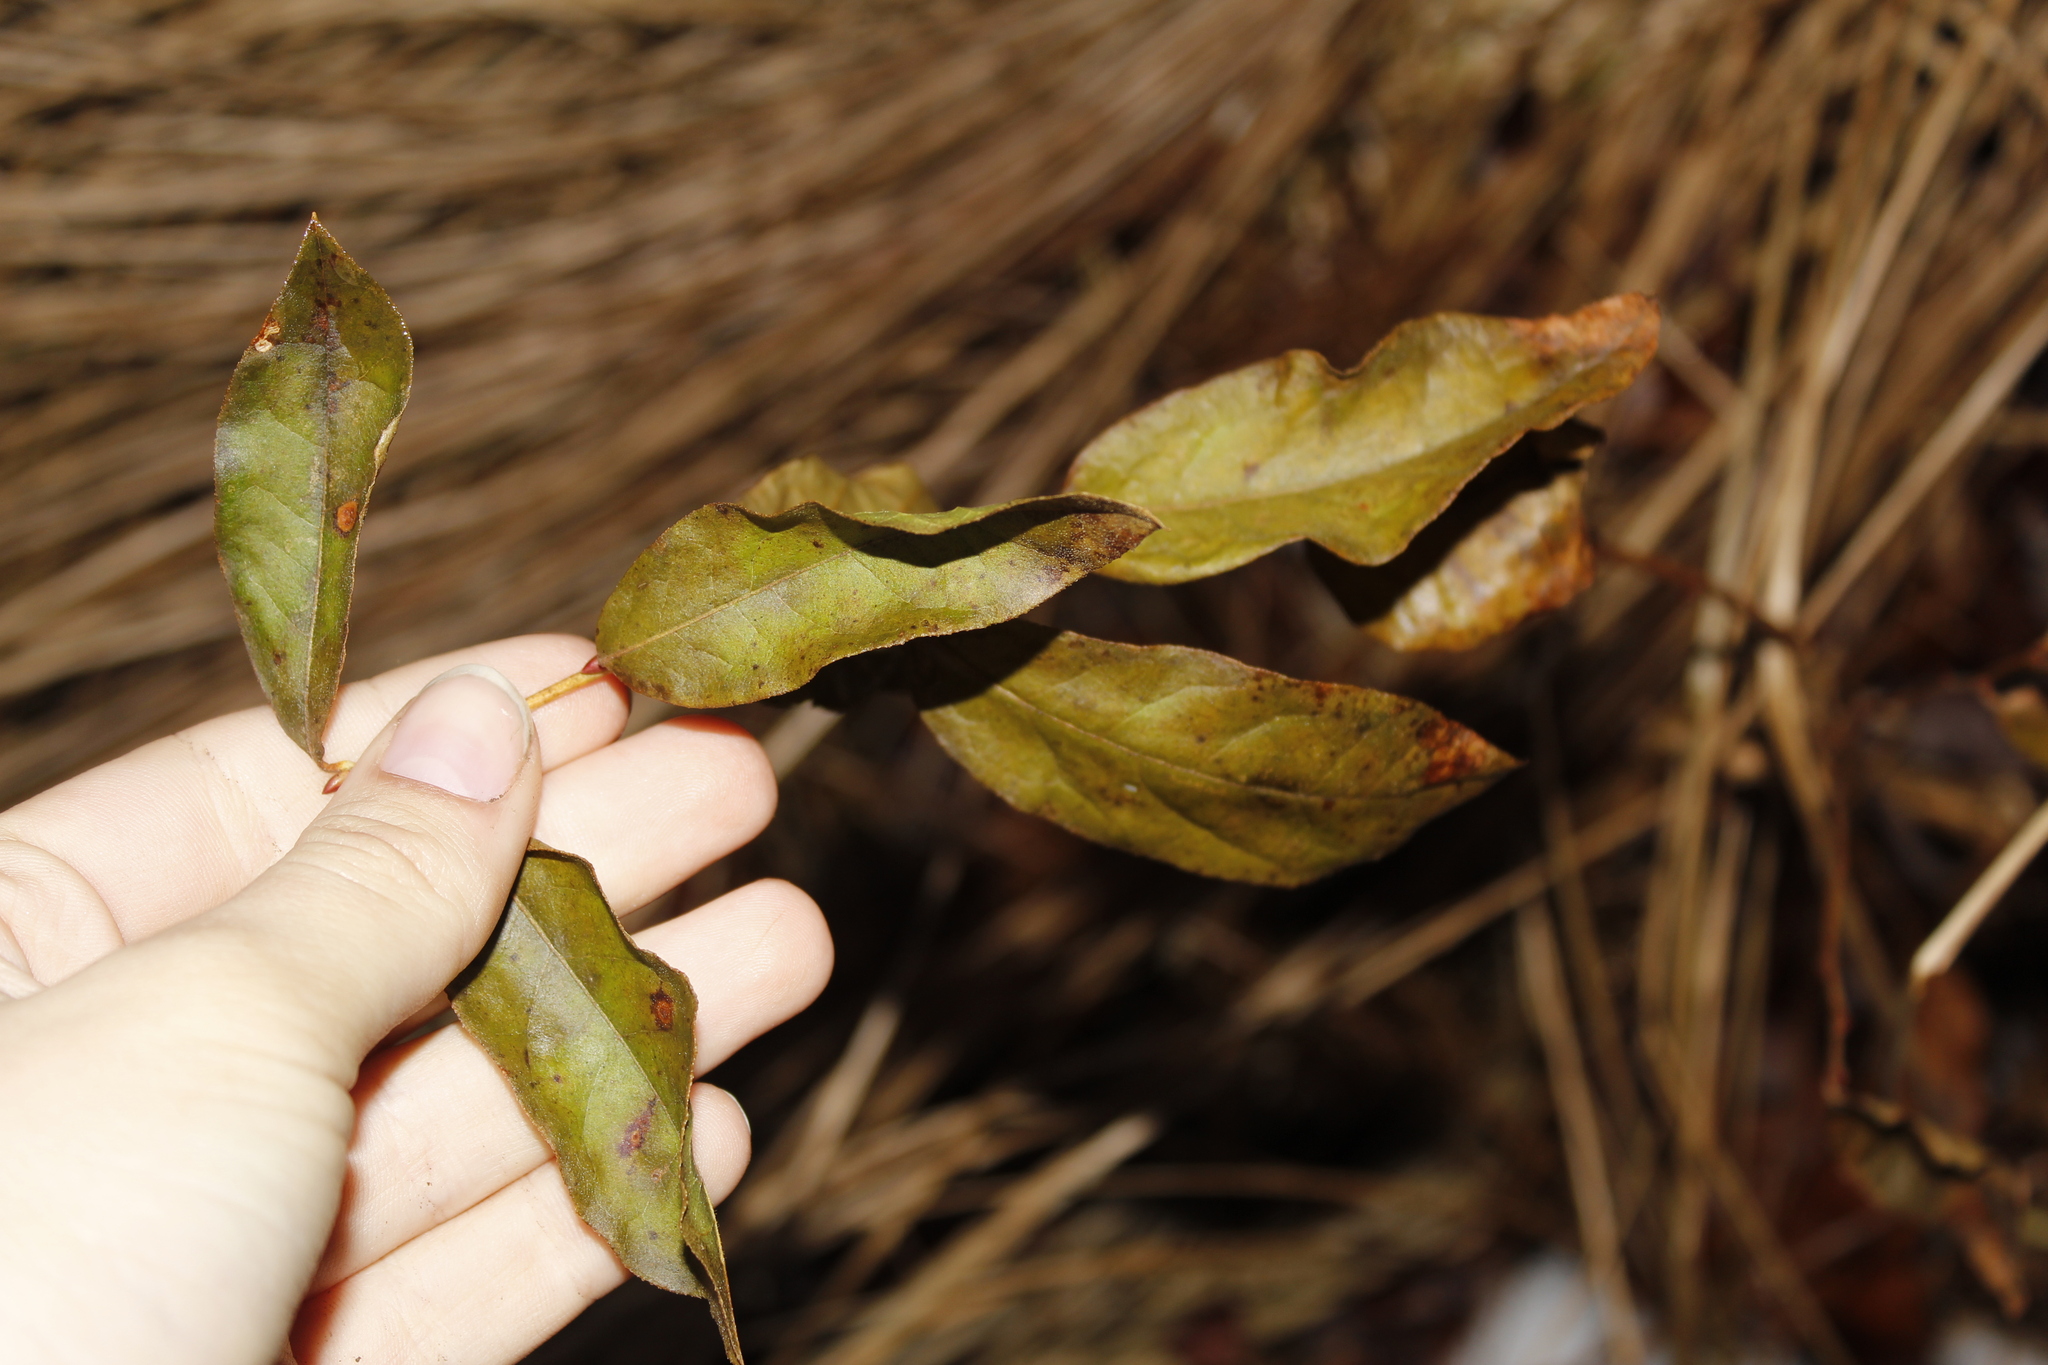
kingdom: Plantae
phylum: Tracheophyta
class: Magnoliopsida
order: Ericales
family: Ericaceae
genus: Gaylussacia
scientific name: Gaylussacia baccata
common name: Black huckleberry
